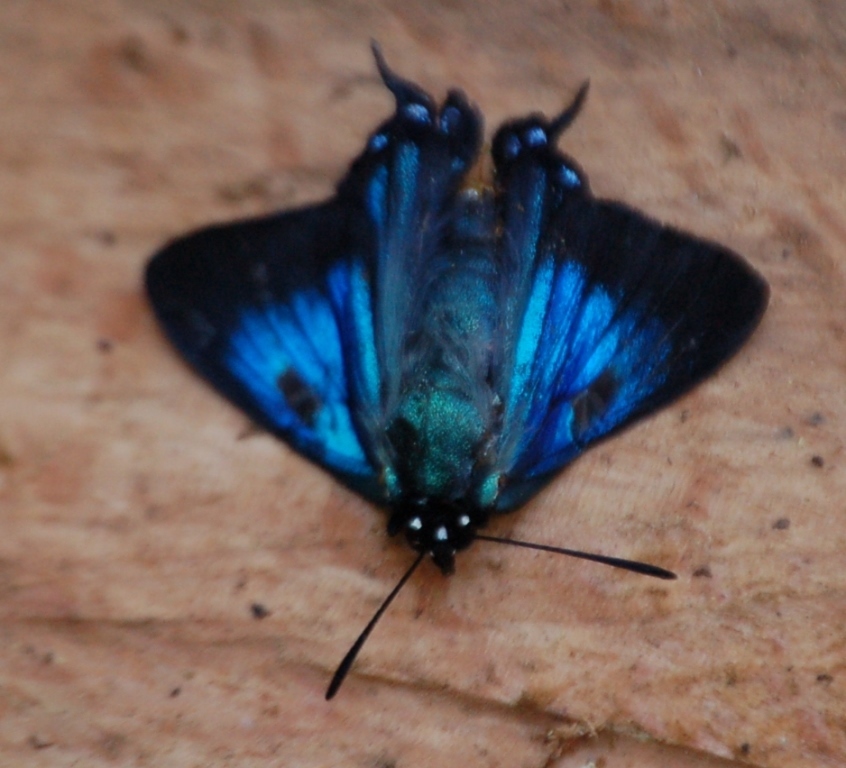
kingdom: Animalia
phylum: Arthropoda
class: Insecta
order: Lepidoptera
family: Lycaenidae
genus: Atlides
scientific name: Atlides halesus
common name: Great purple hairstreak
